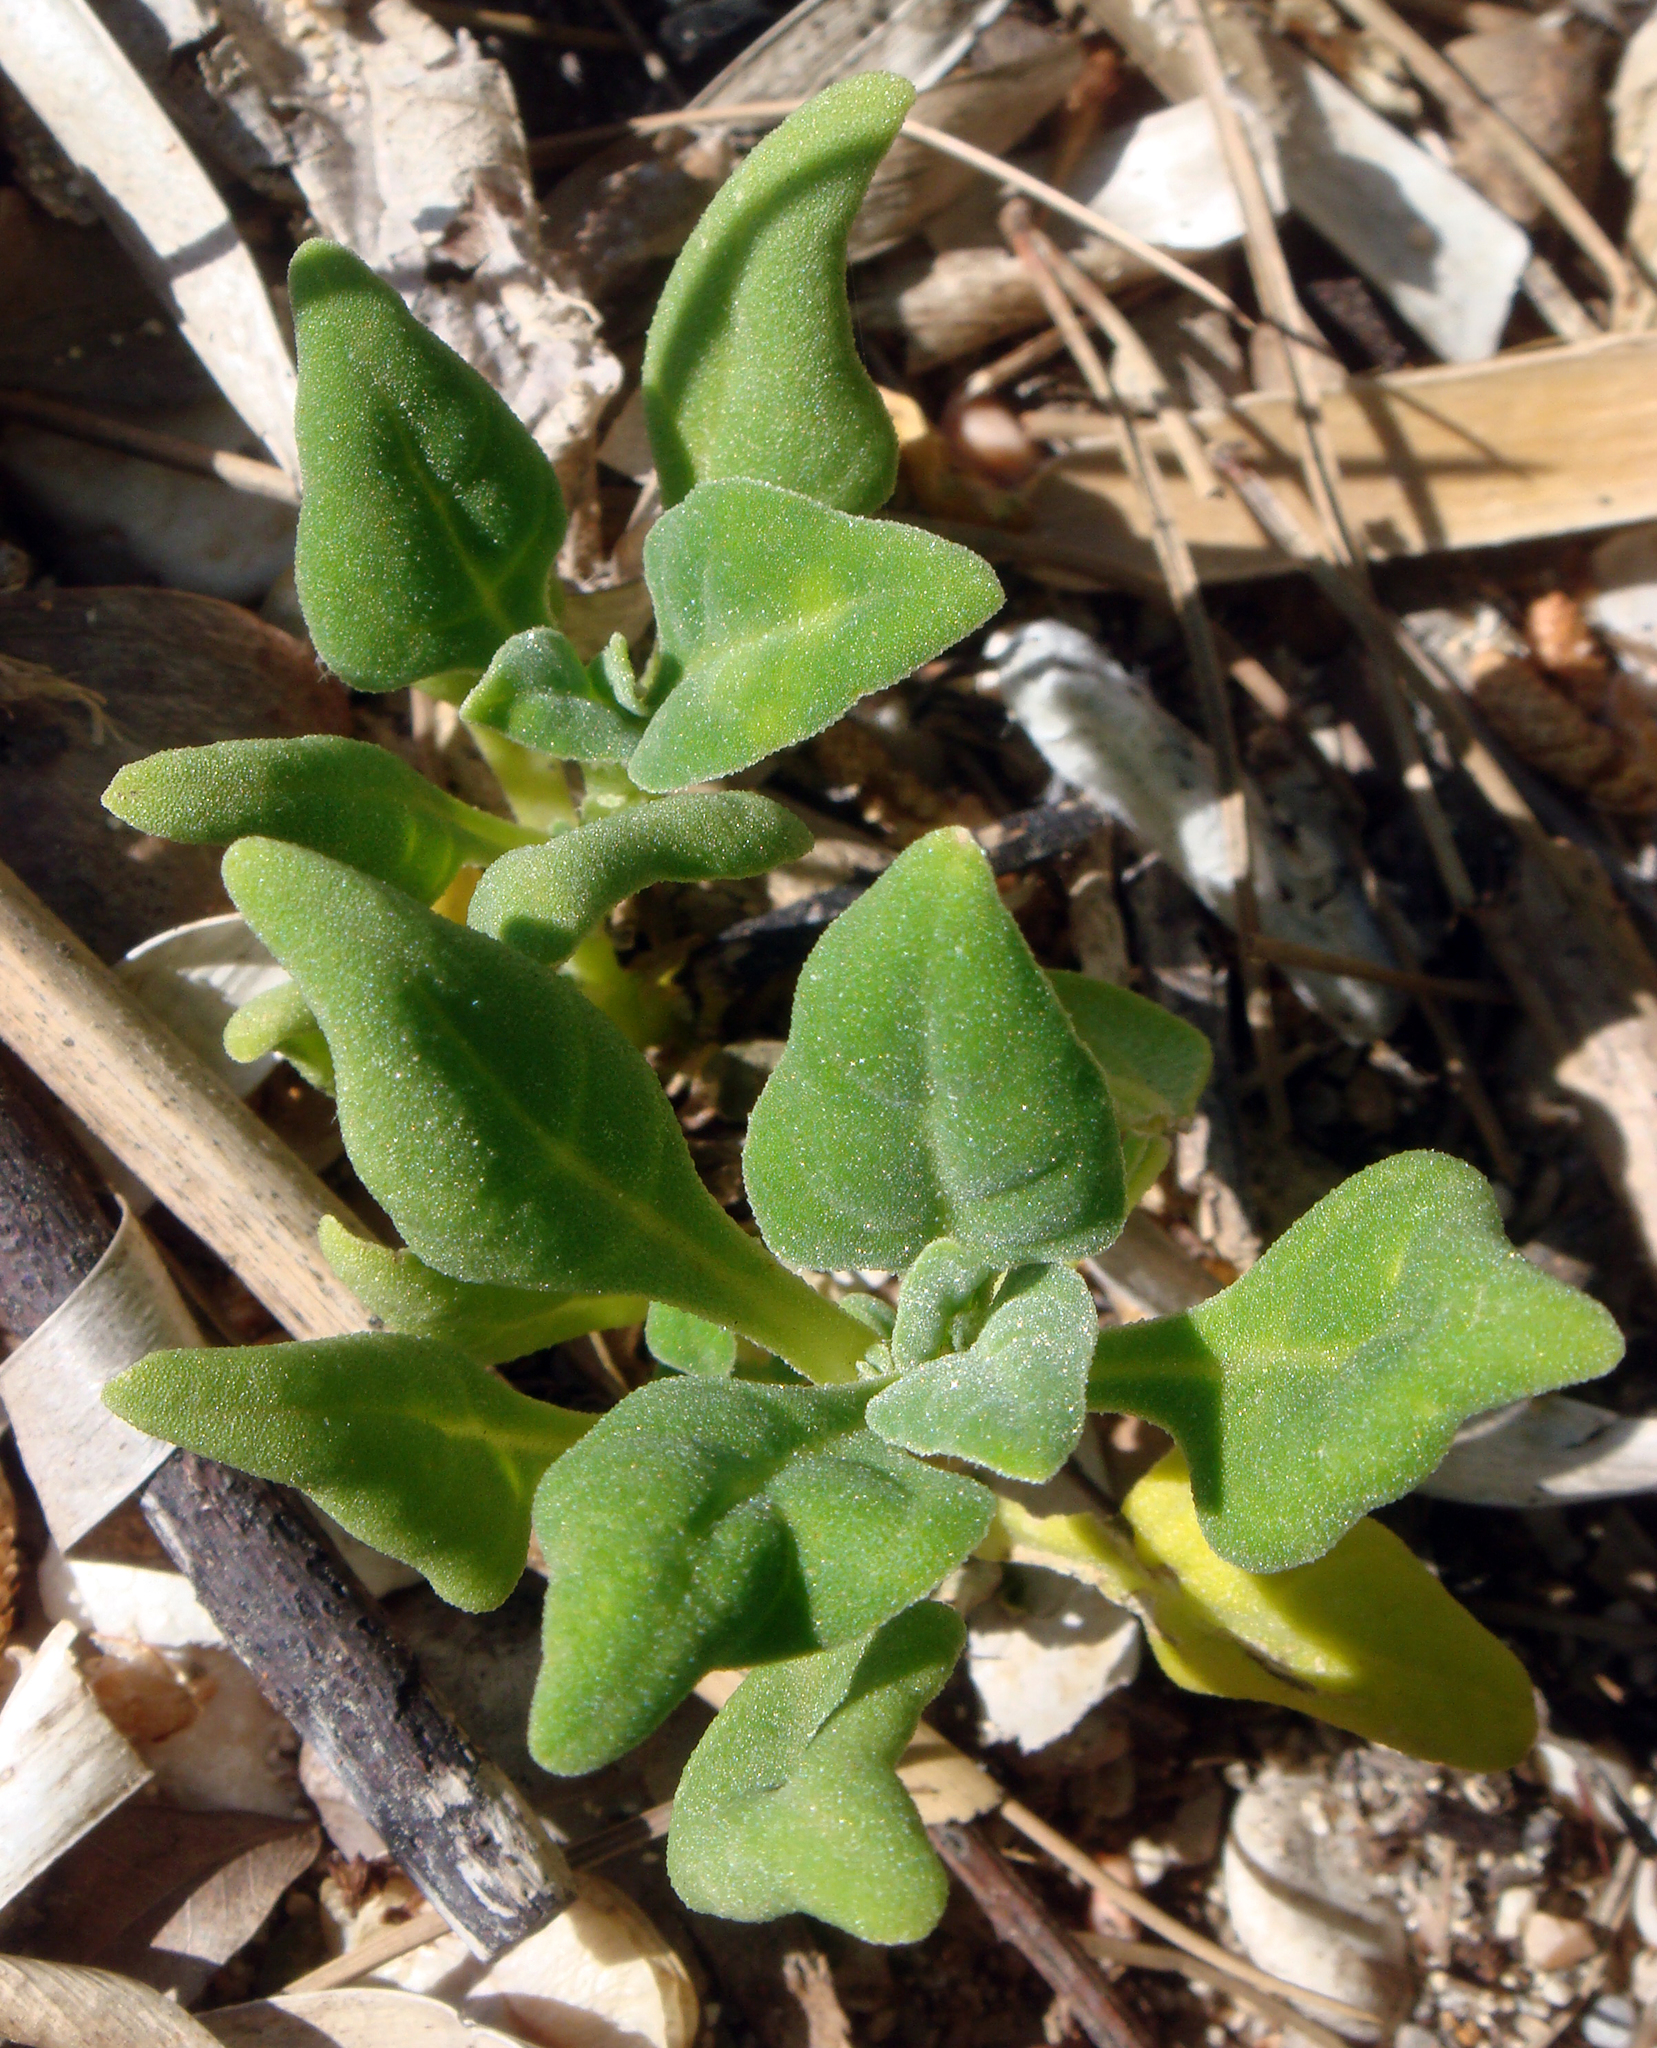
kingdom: Plantae
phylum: Tracheophyta
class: Magnoliopsida
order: Caryophyllales
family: Aizoaceae
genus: Tetragonia
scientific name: Tetragonia tetragonoides
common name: New zealand-spinach
